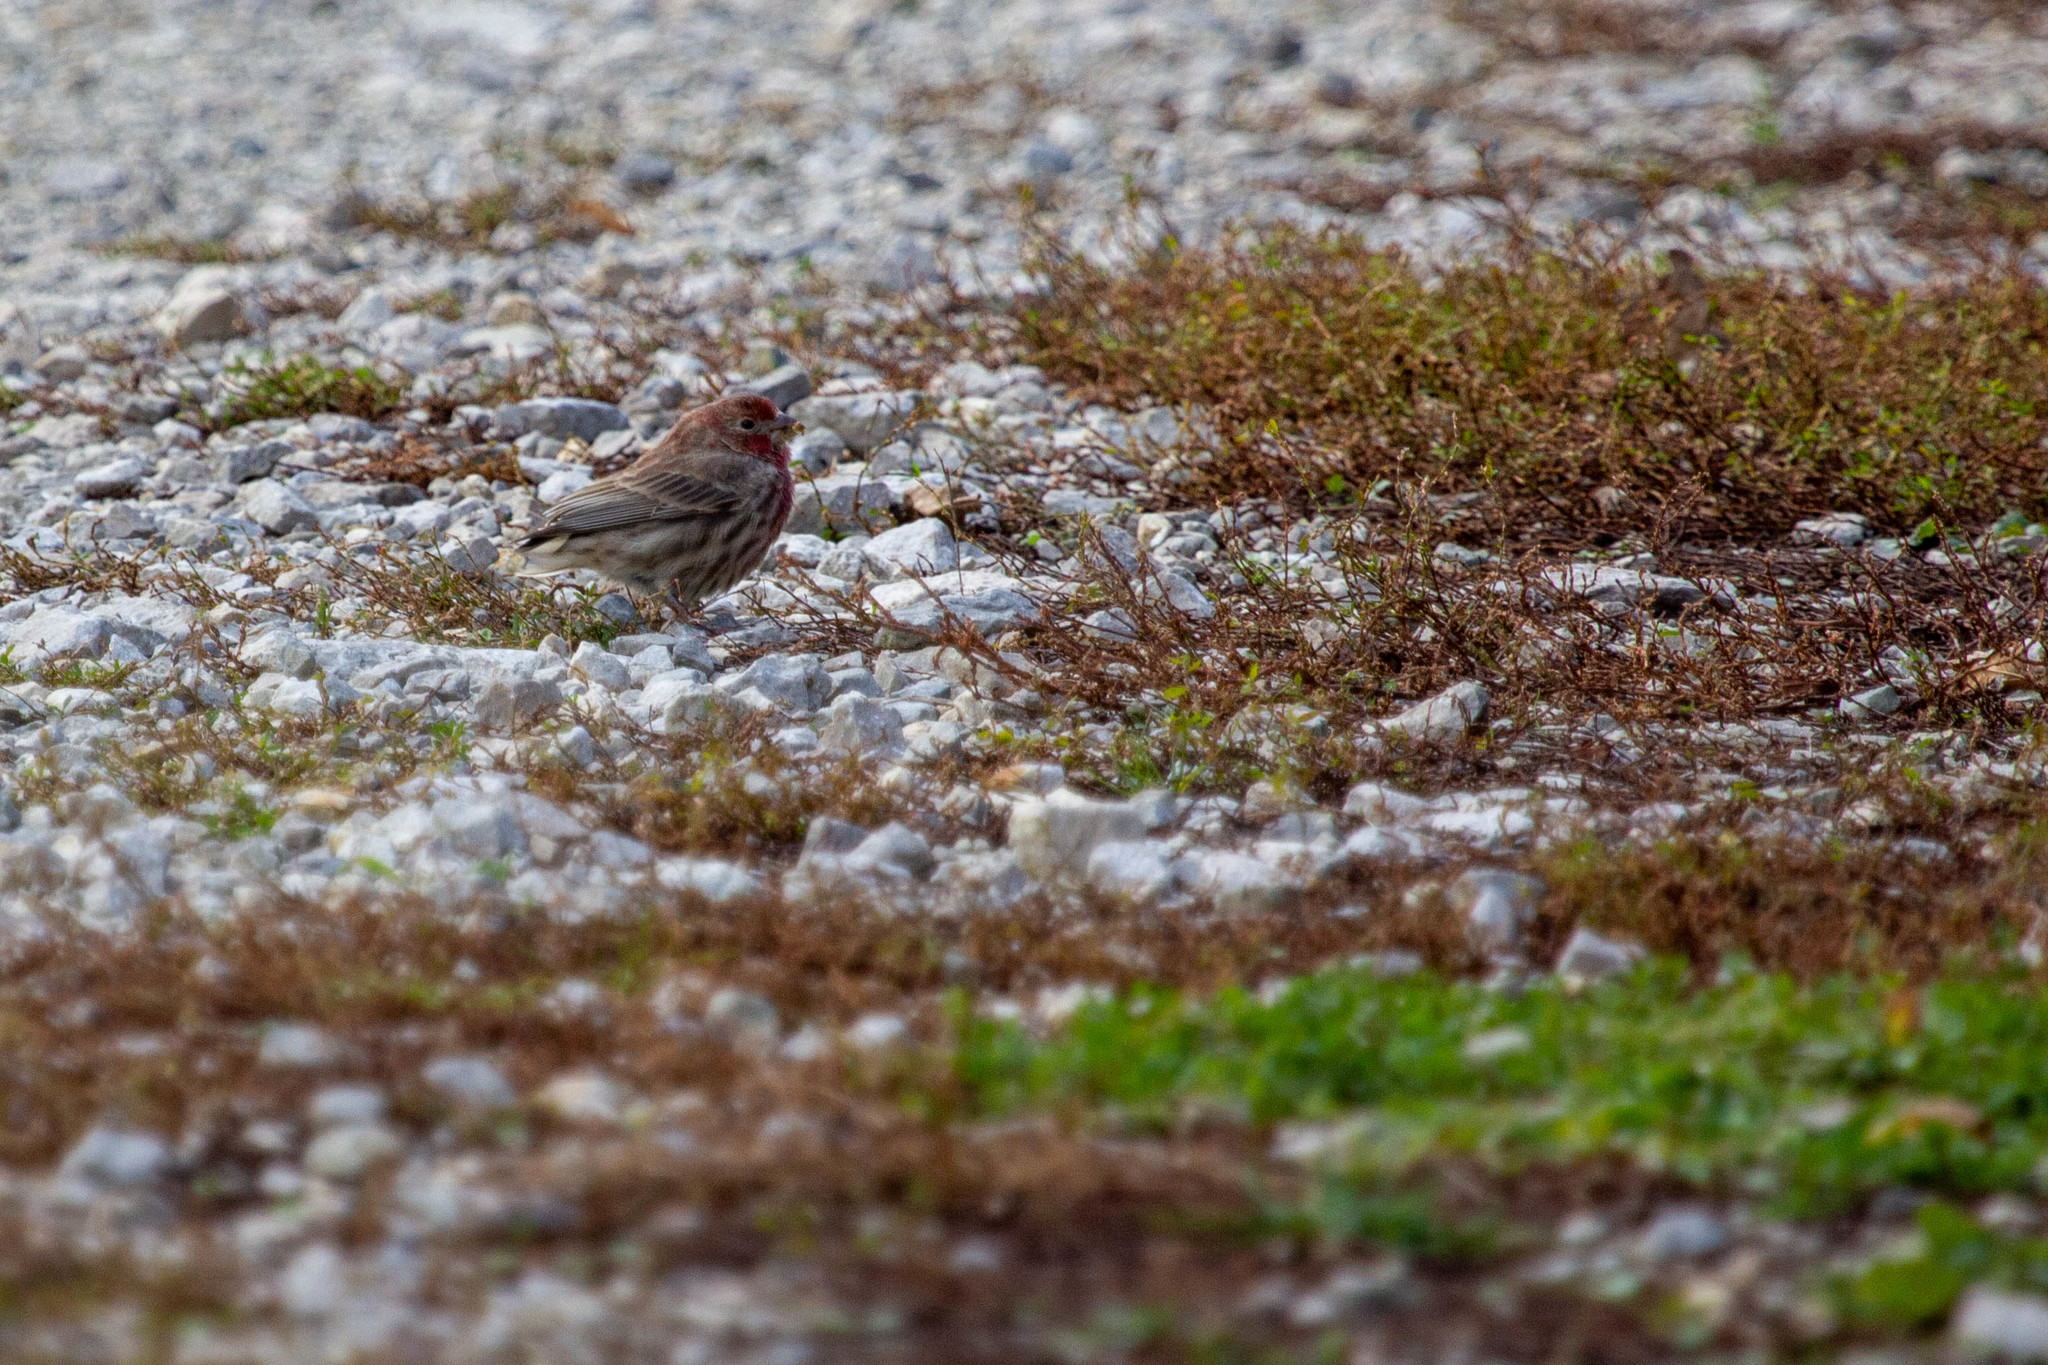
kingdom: Animalia
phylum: Chordata
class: Aves
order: Passeriformes
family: Fringillidae
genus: Haemorhous
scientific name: Haemorhous mexicanus
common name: House finch
